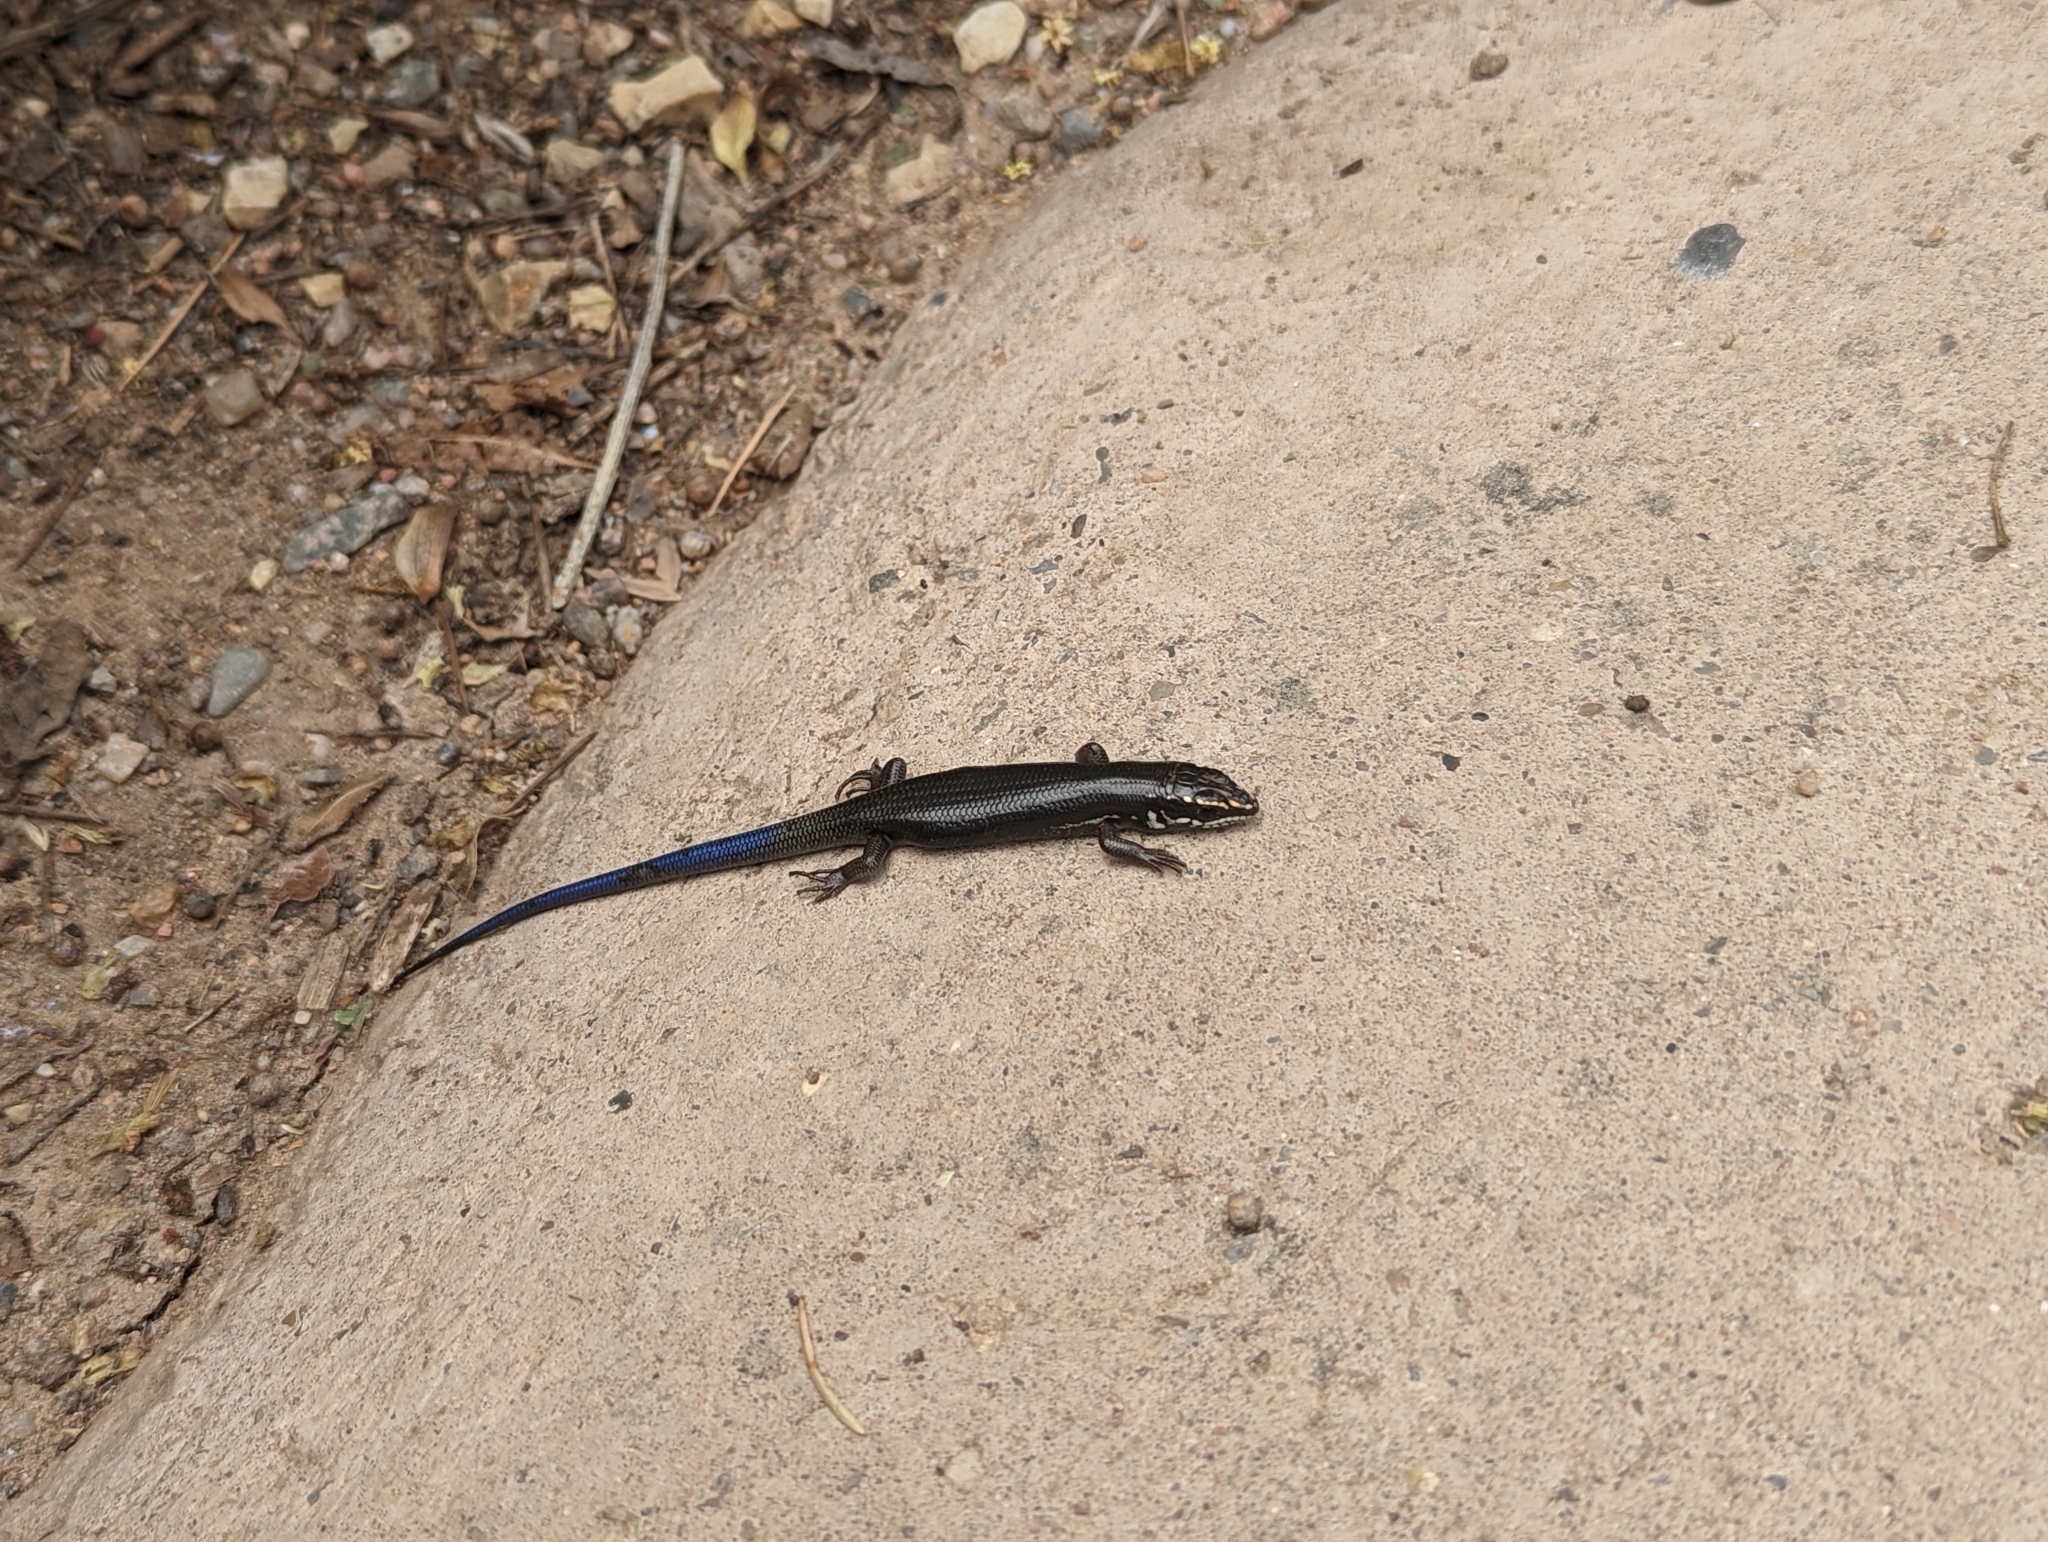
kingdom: Animalia
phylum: Chordata
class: Squamata
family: Scincidae
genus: Plestiodon
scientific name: Plestiodon obsoletus
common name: Great plains skink
